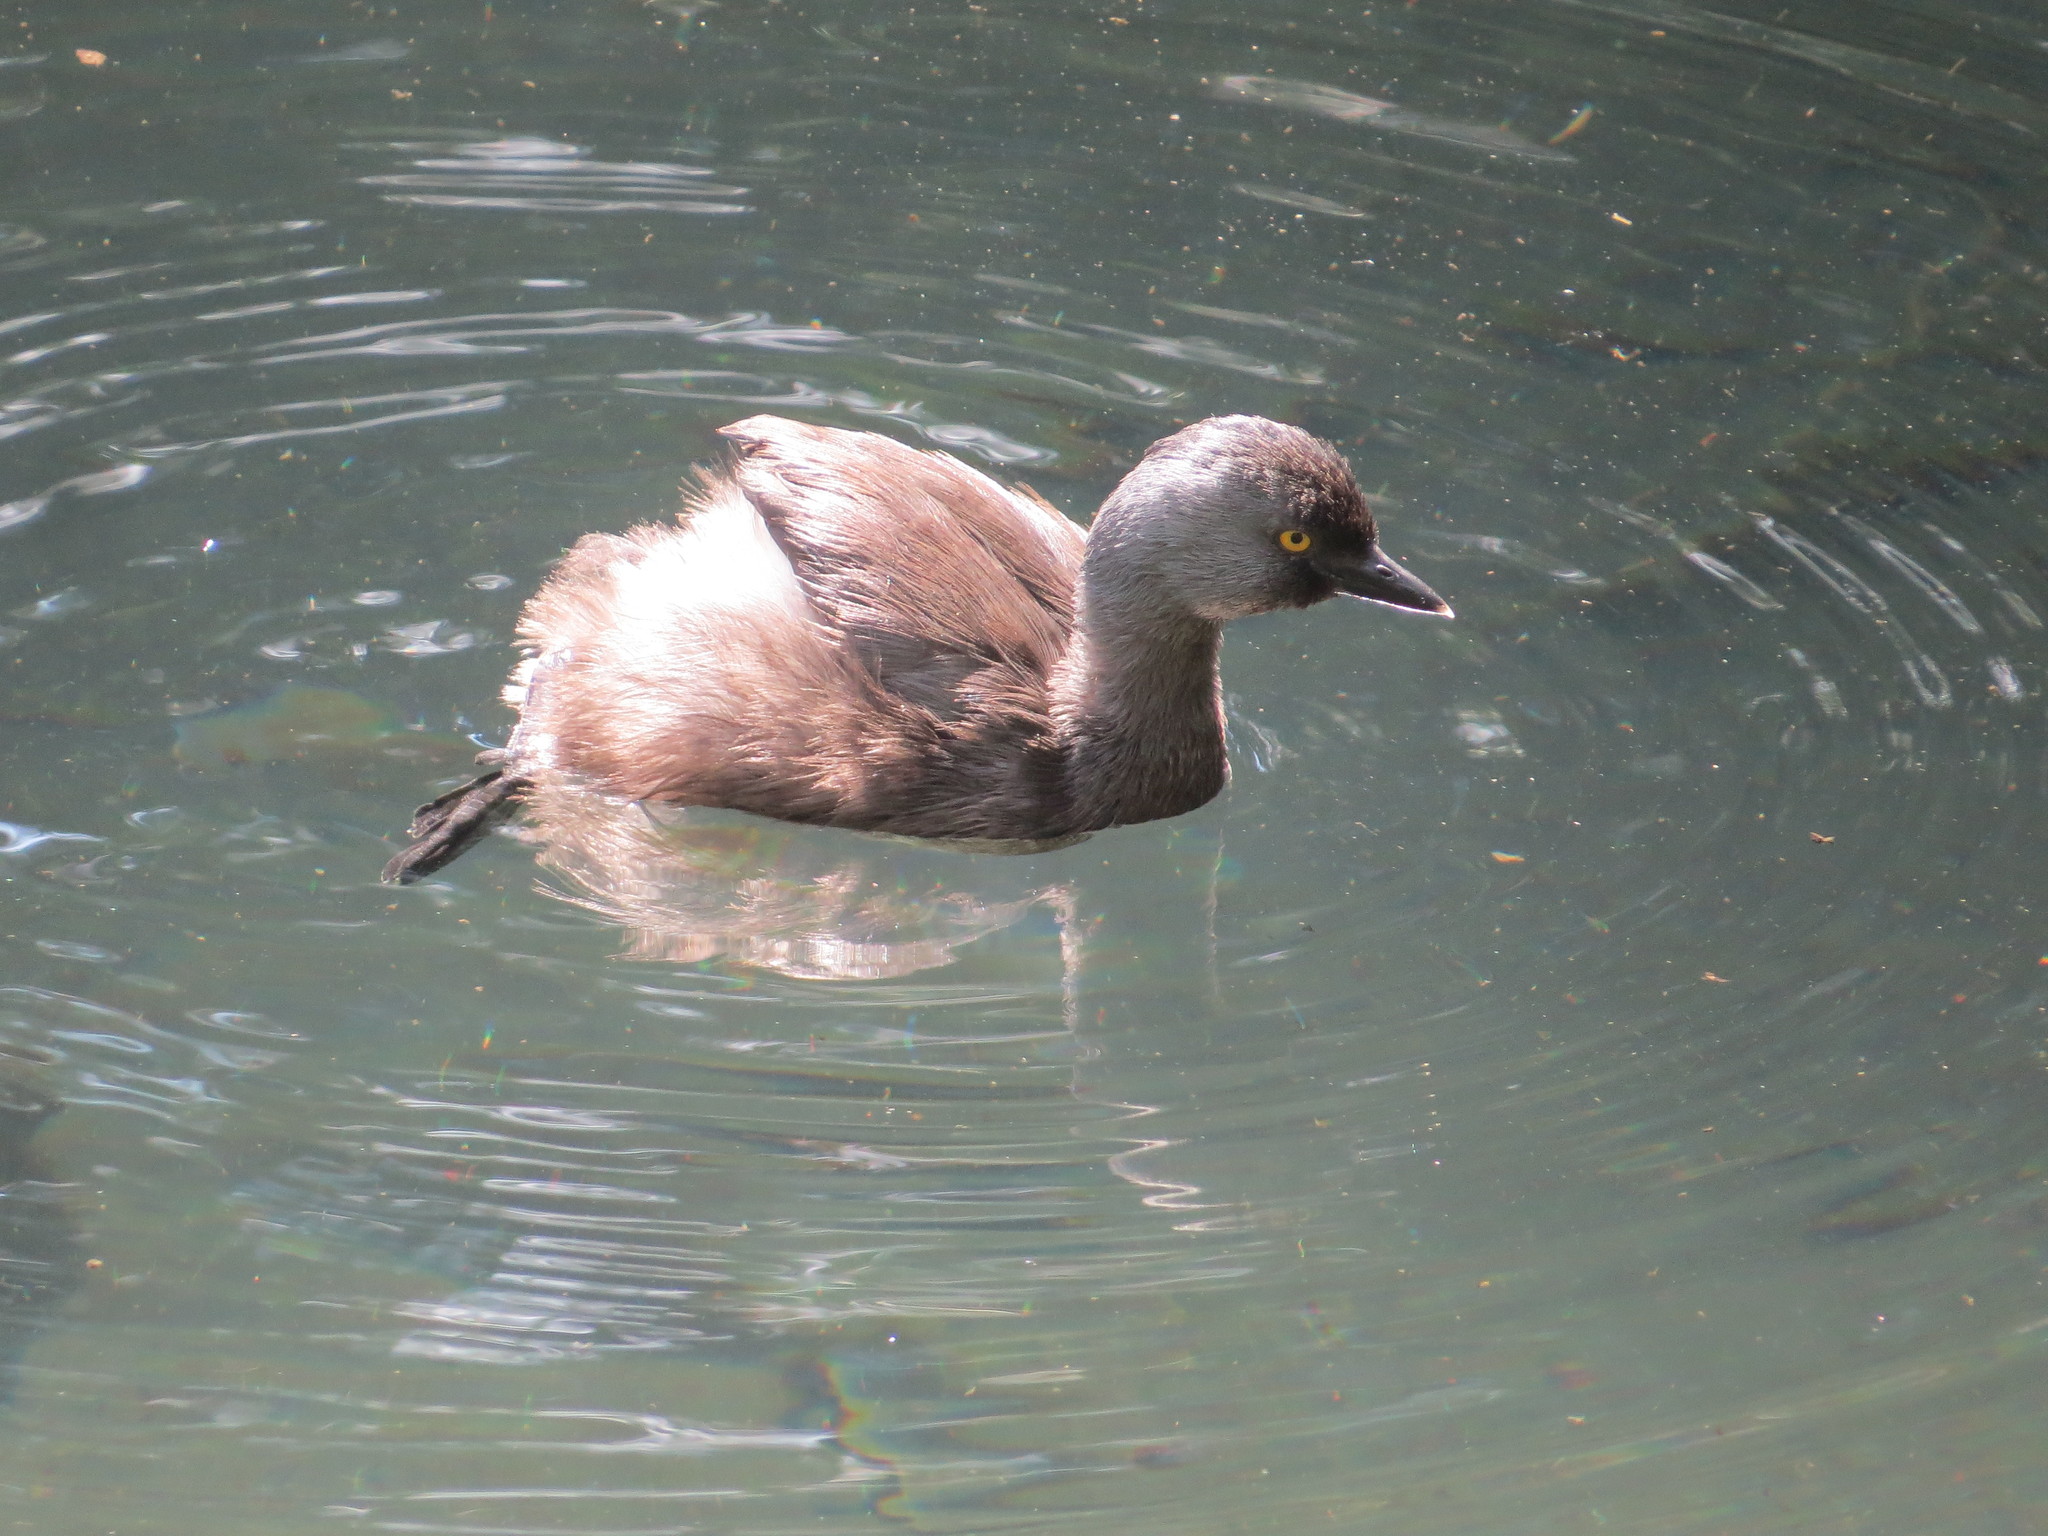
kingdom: Animalia
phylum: Chordata
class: Aves
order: Podicipediformes
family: Podicipedidae
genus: Tachybaptus
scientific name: Tachybaptus dominicus
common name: Least grebe
